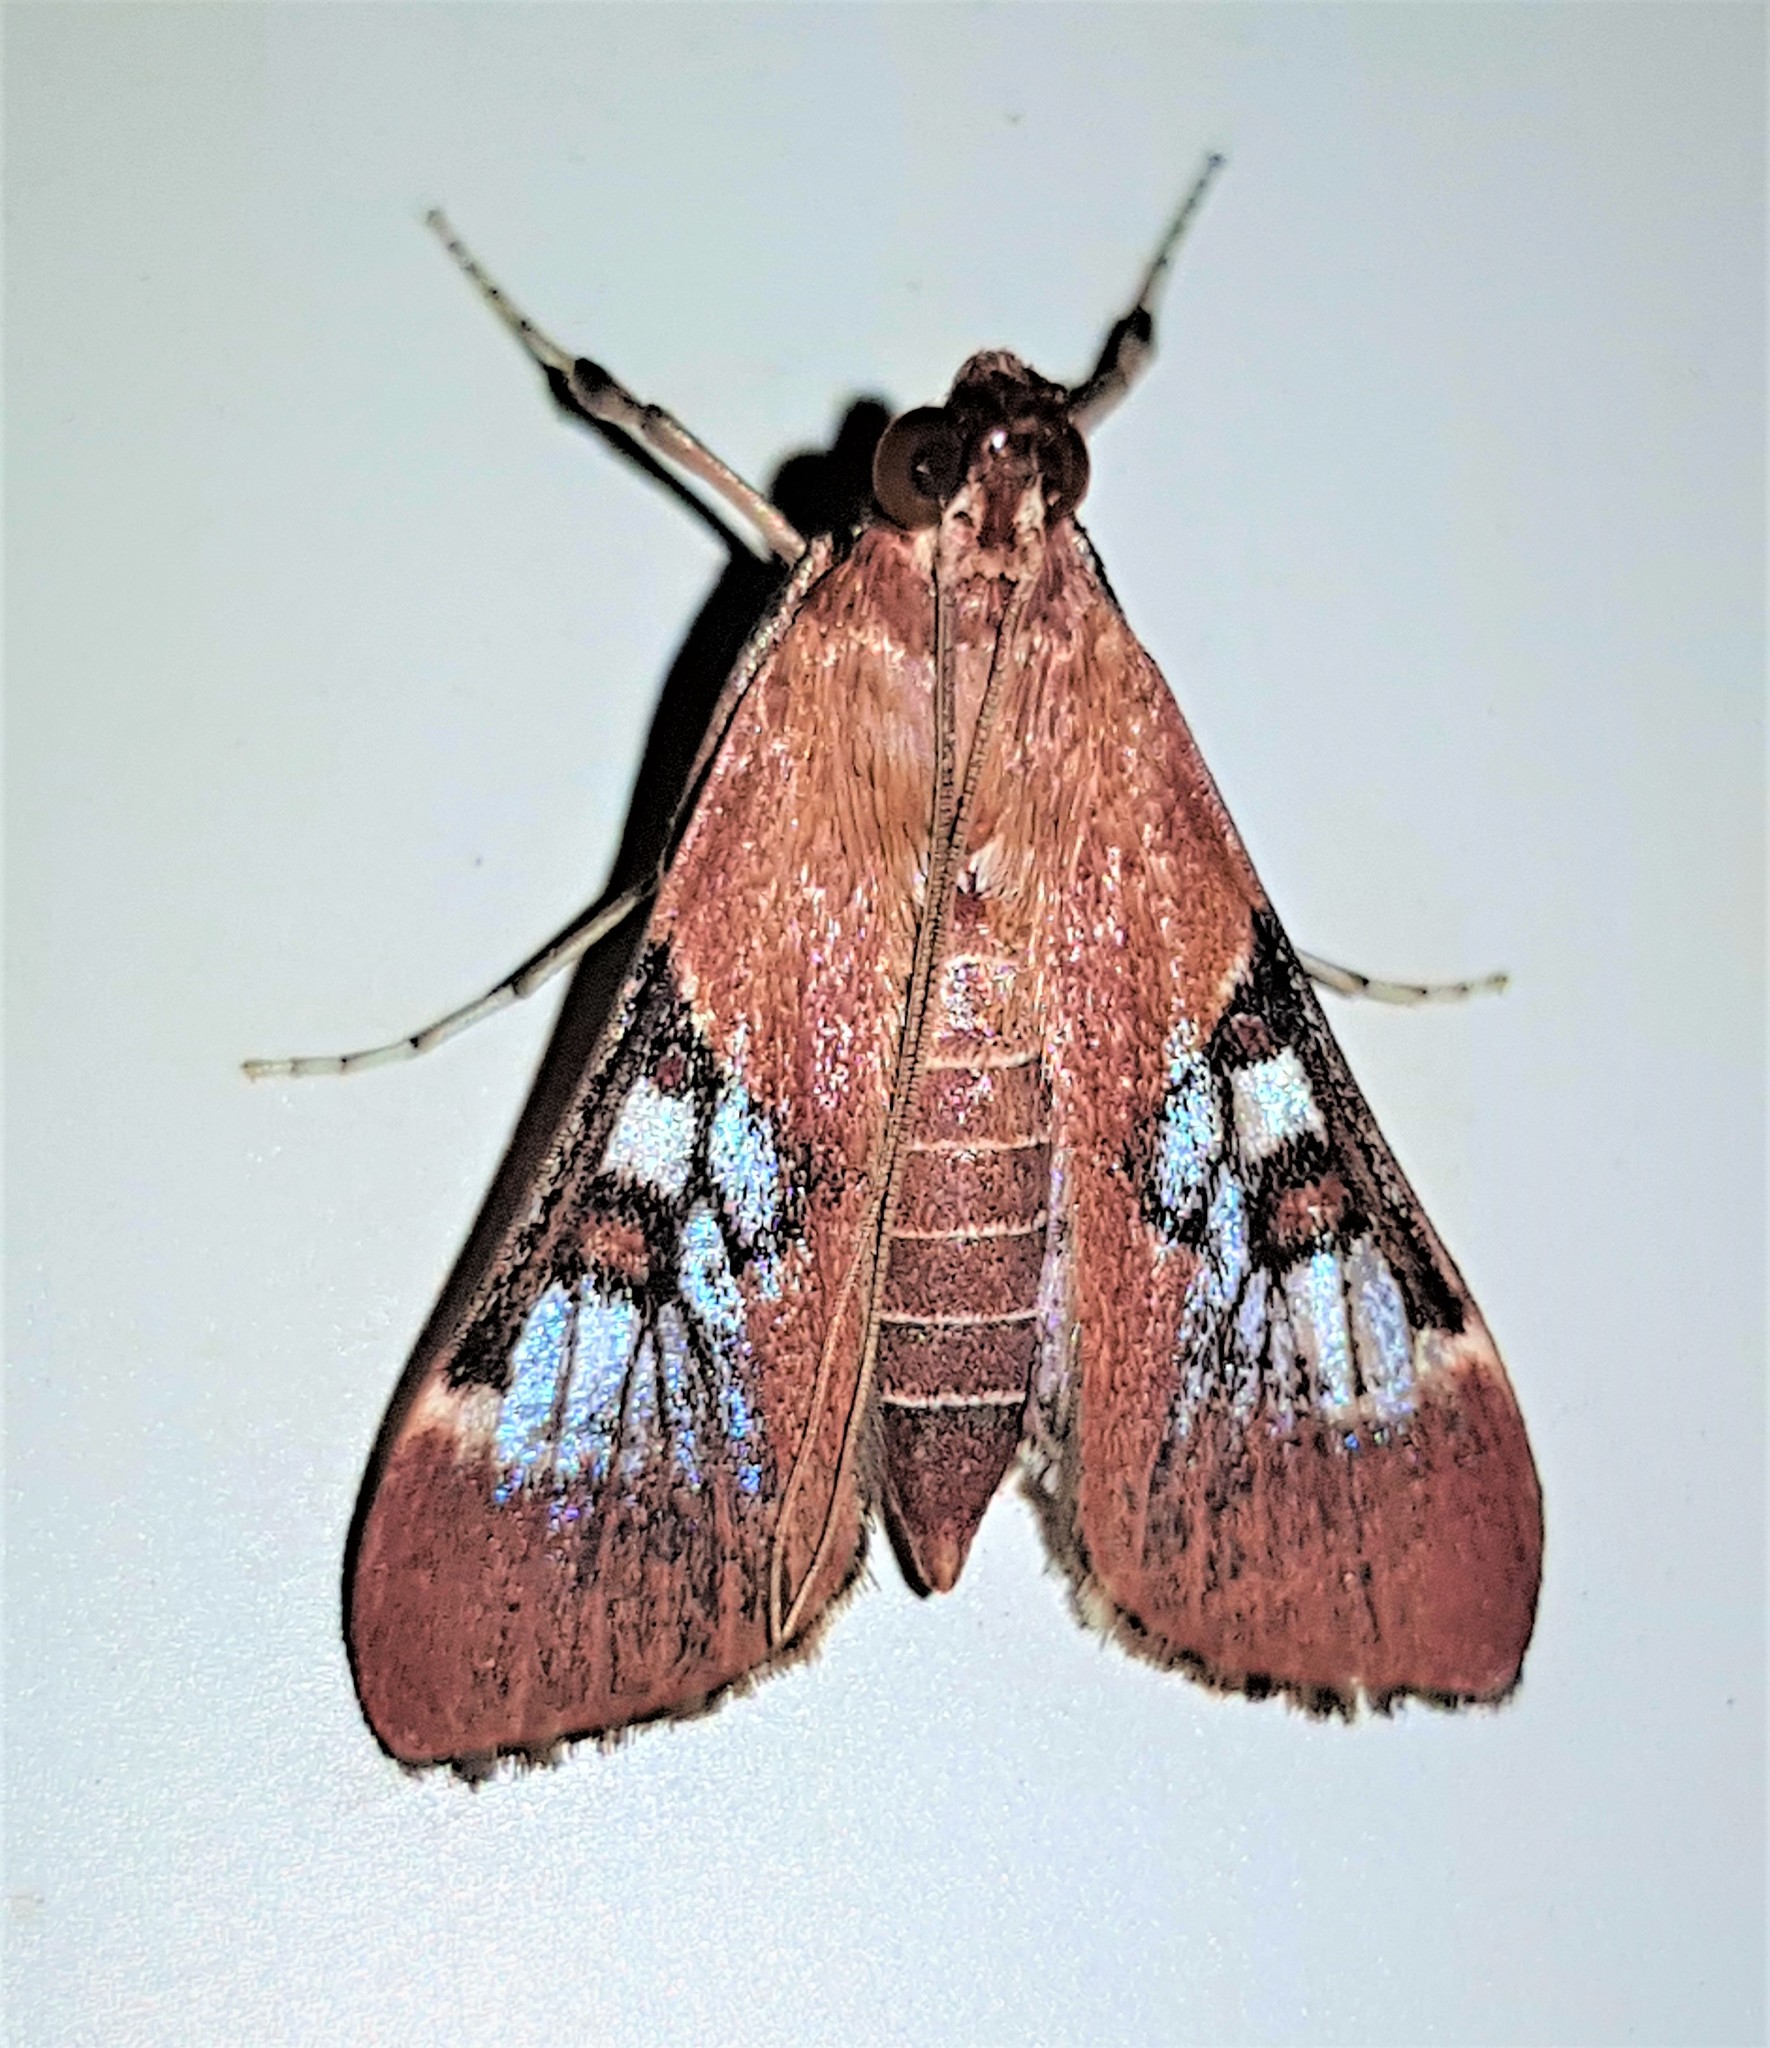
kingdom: Animalia
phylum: Arthropoda
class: Insecta
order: Lepidoptera
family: Crambidae
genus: Omiodes
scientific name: Omiodes stigmosalis
